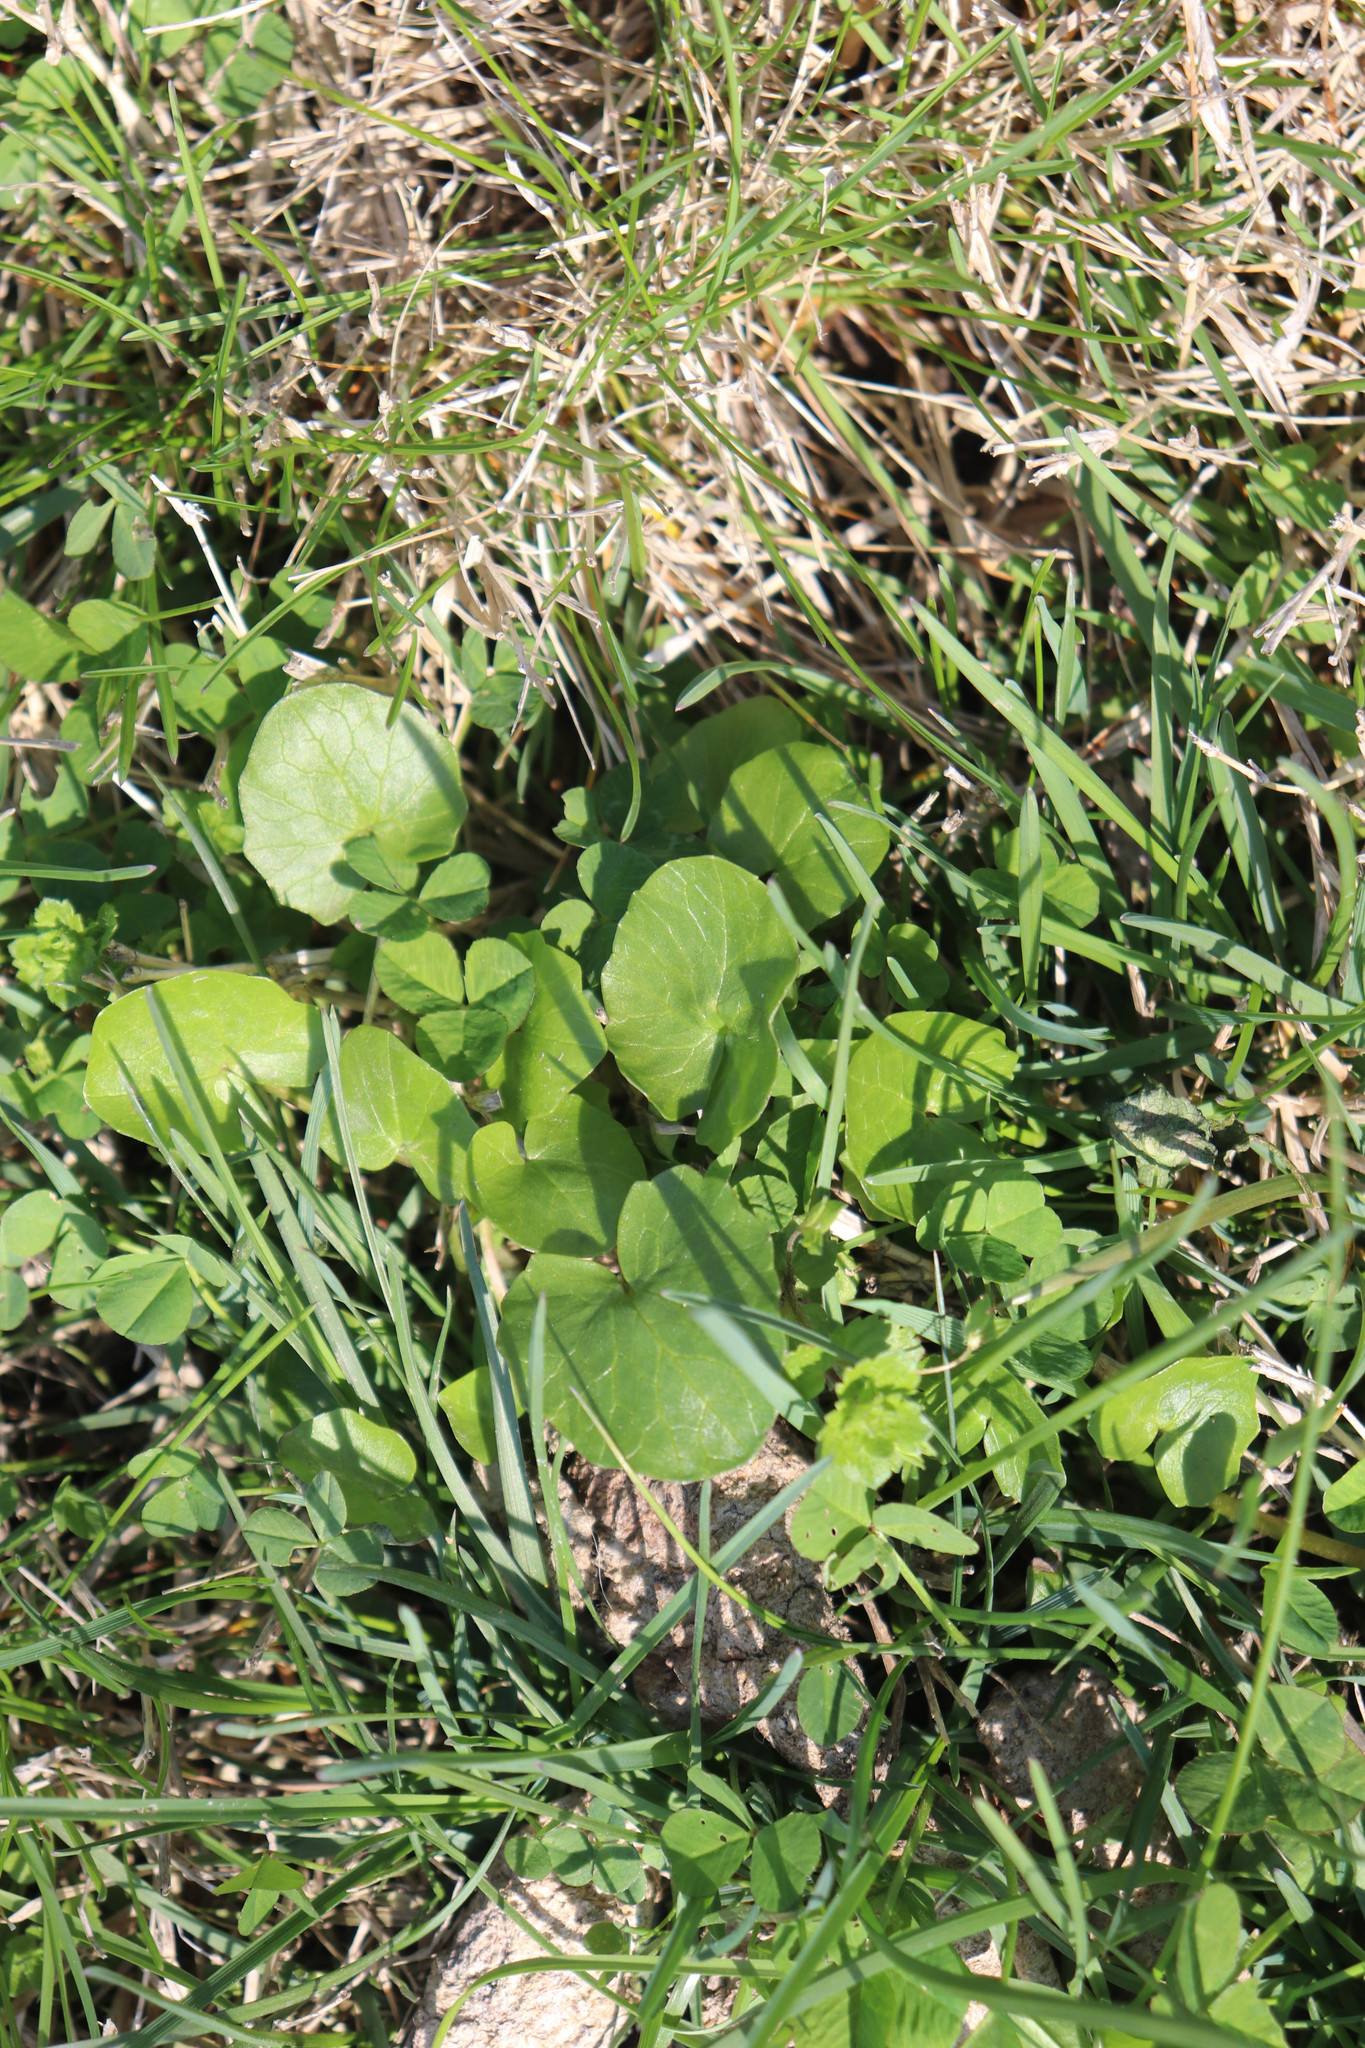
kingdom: Plantae
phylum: Tracheophyta
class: Magnoliopsida
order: Ranunculales
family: Ranunculaceae
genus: Ficaria
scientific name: Ficaria verna
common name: Lesser celandine
